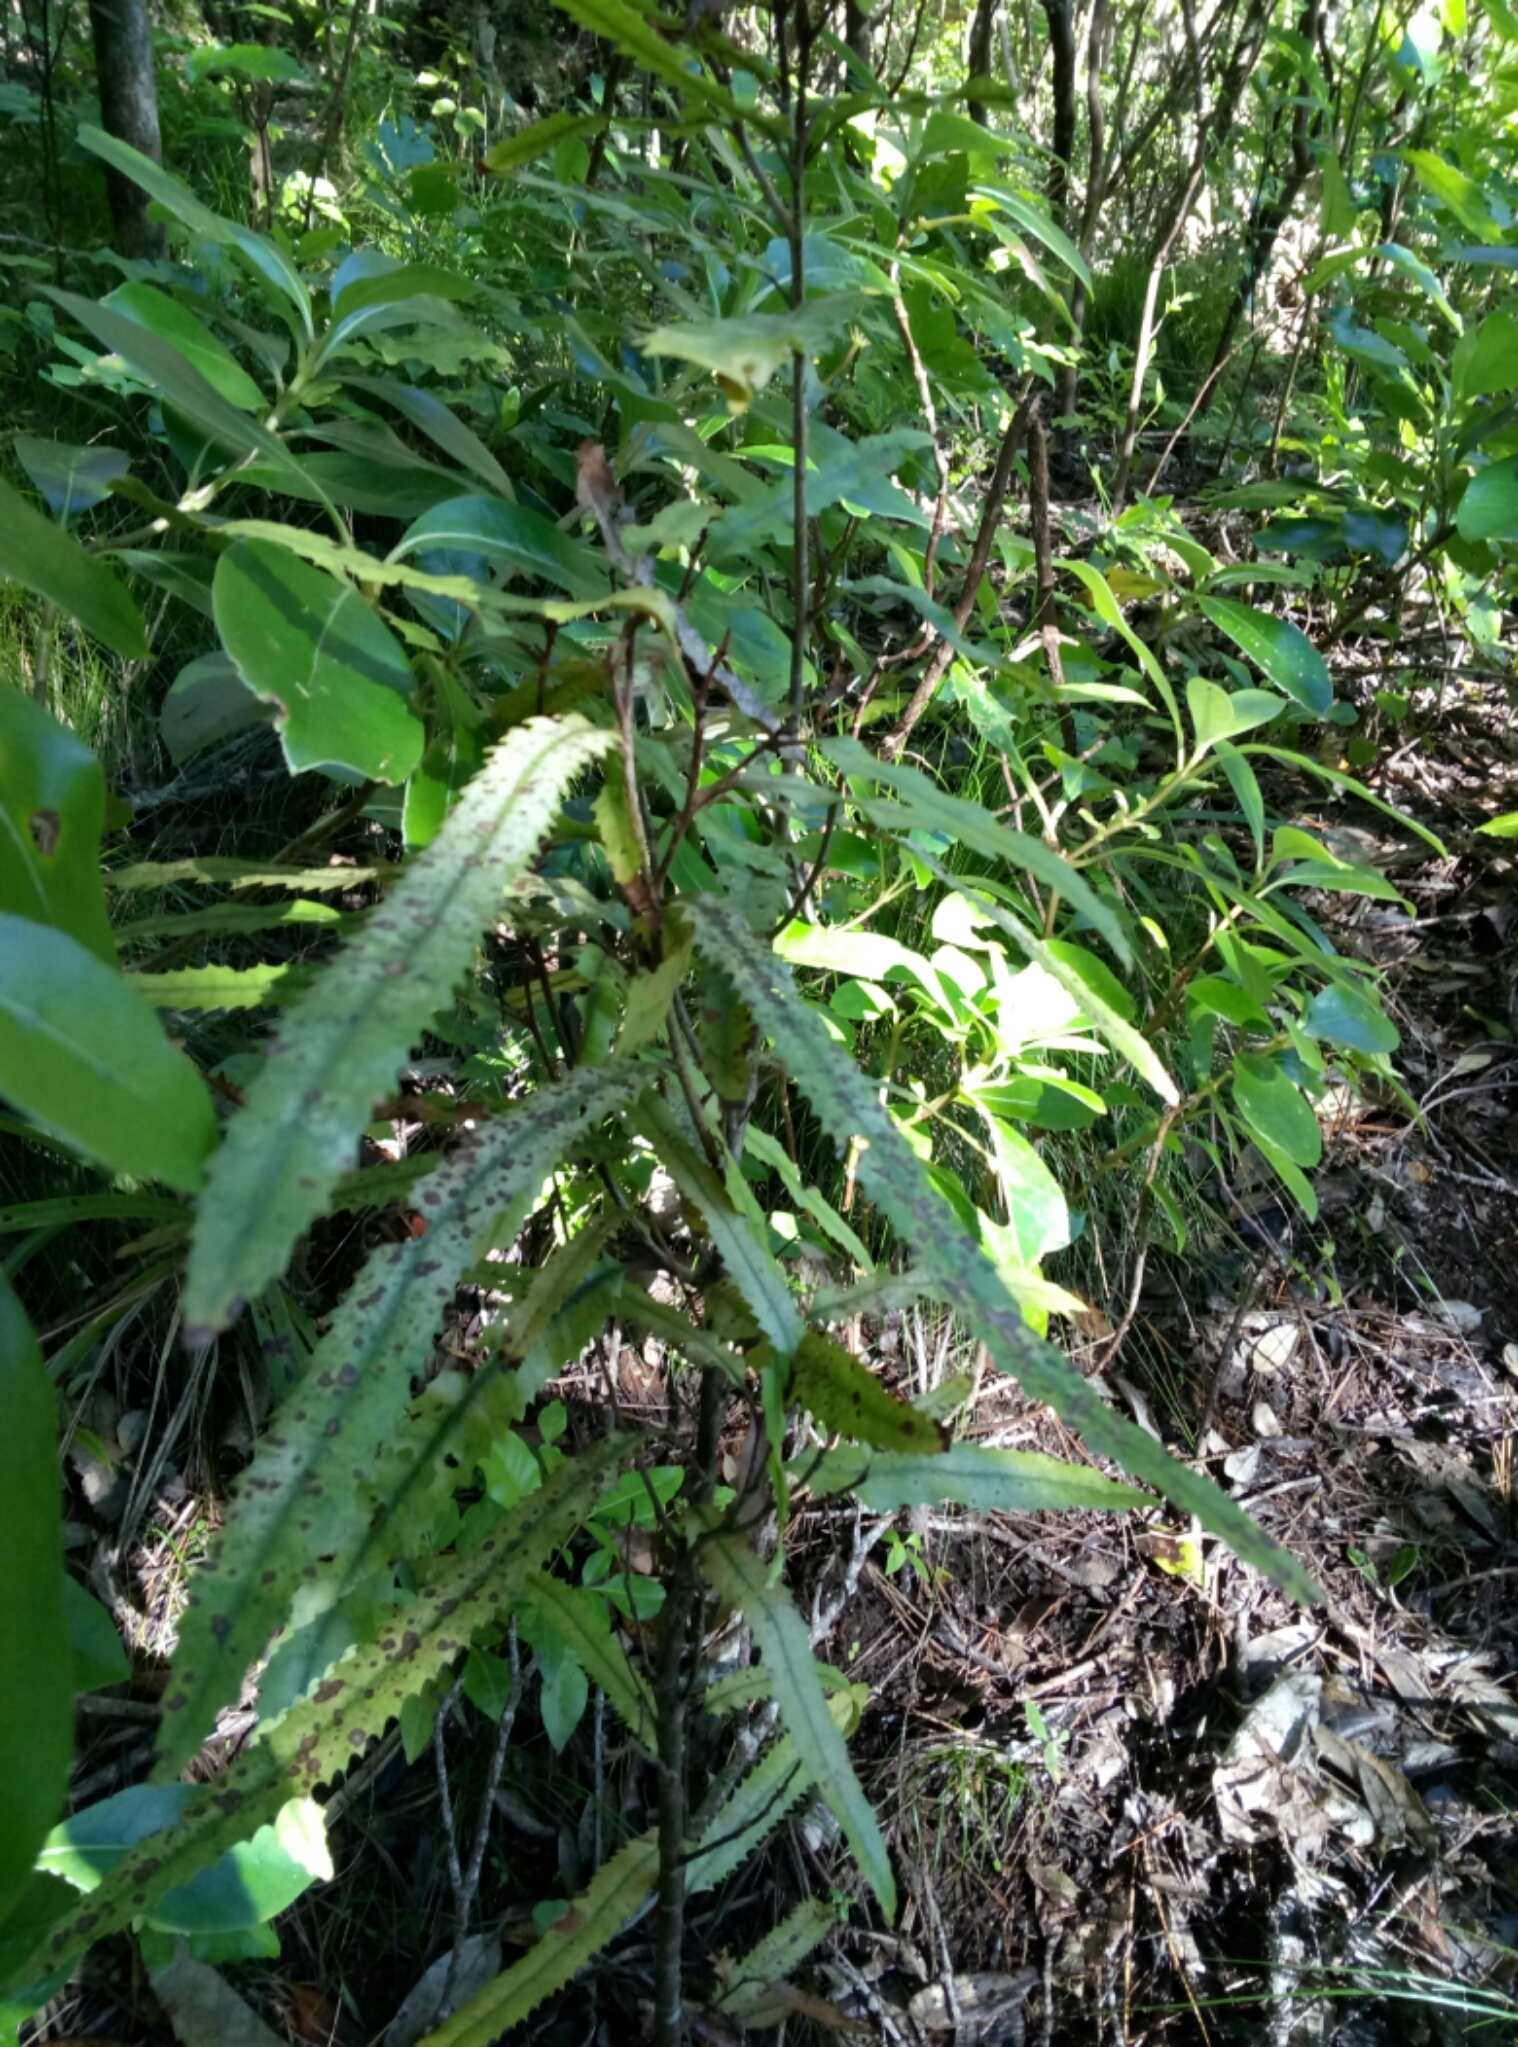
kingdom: Plantae
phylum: Tracheophyta
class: Magnoliopsida
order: Proteales
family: Proteaceae
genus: Knightia
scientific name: Knightia excelsa
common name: New zealand-honeysuckle
